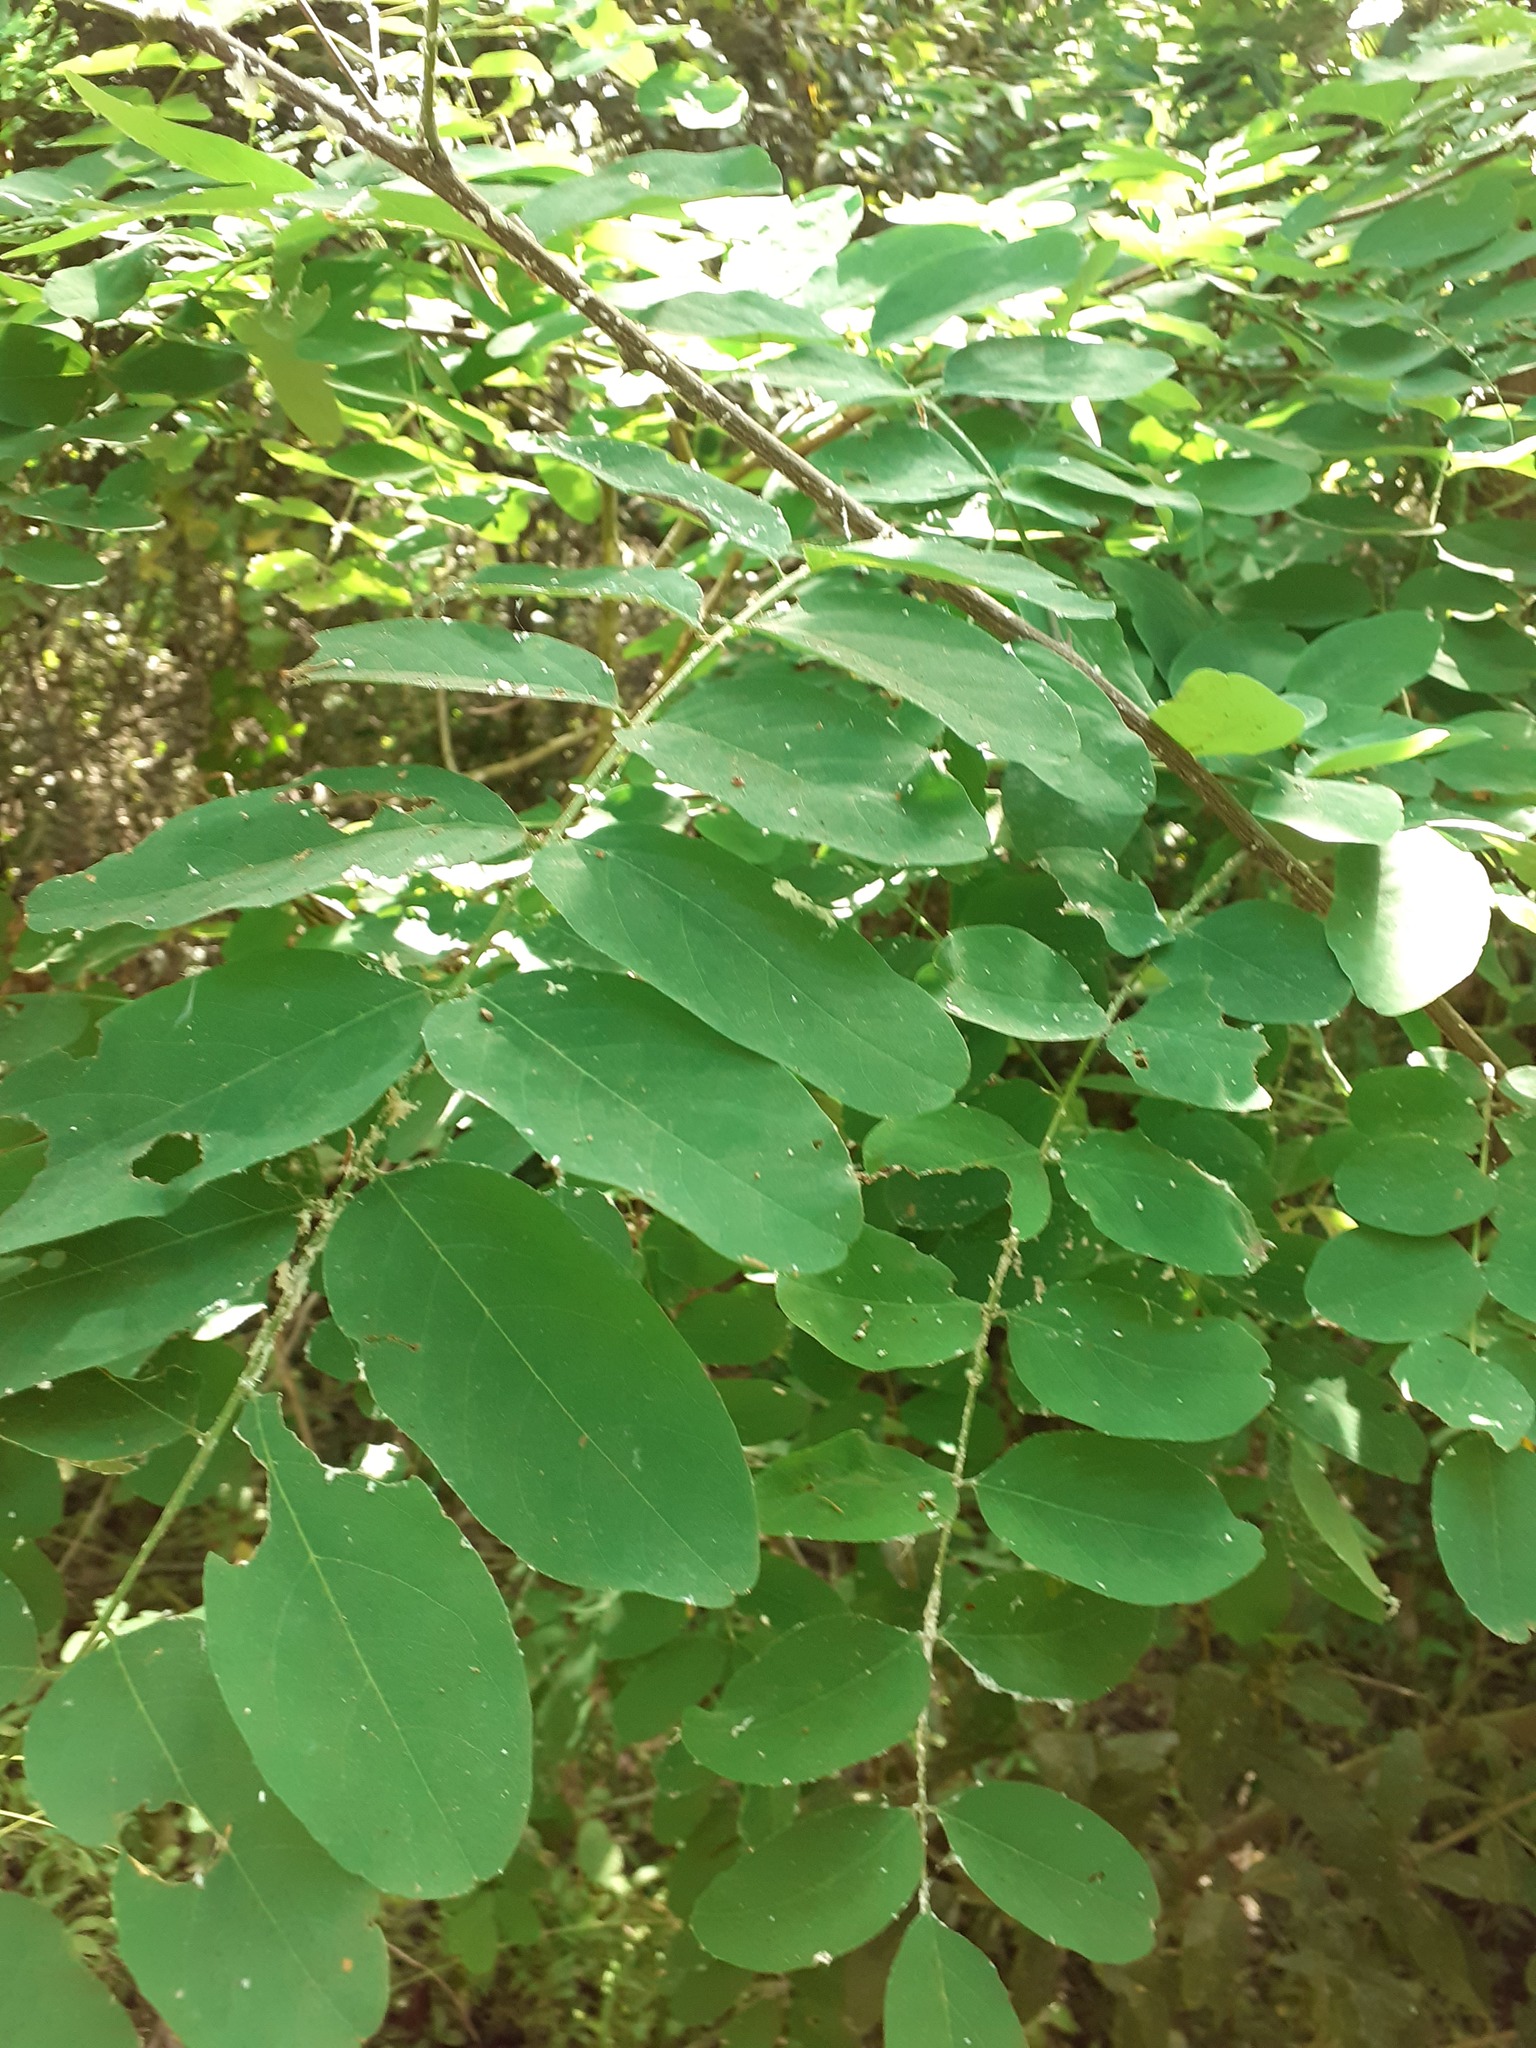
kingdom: Plantae
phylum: Tracheophyta
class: Magnoliopsida
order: Fabales
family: Fabaceae
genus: Robinia
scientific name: Robinia pseudoacacia
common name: Black locust
